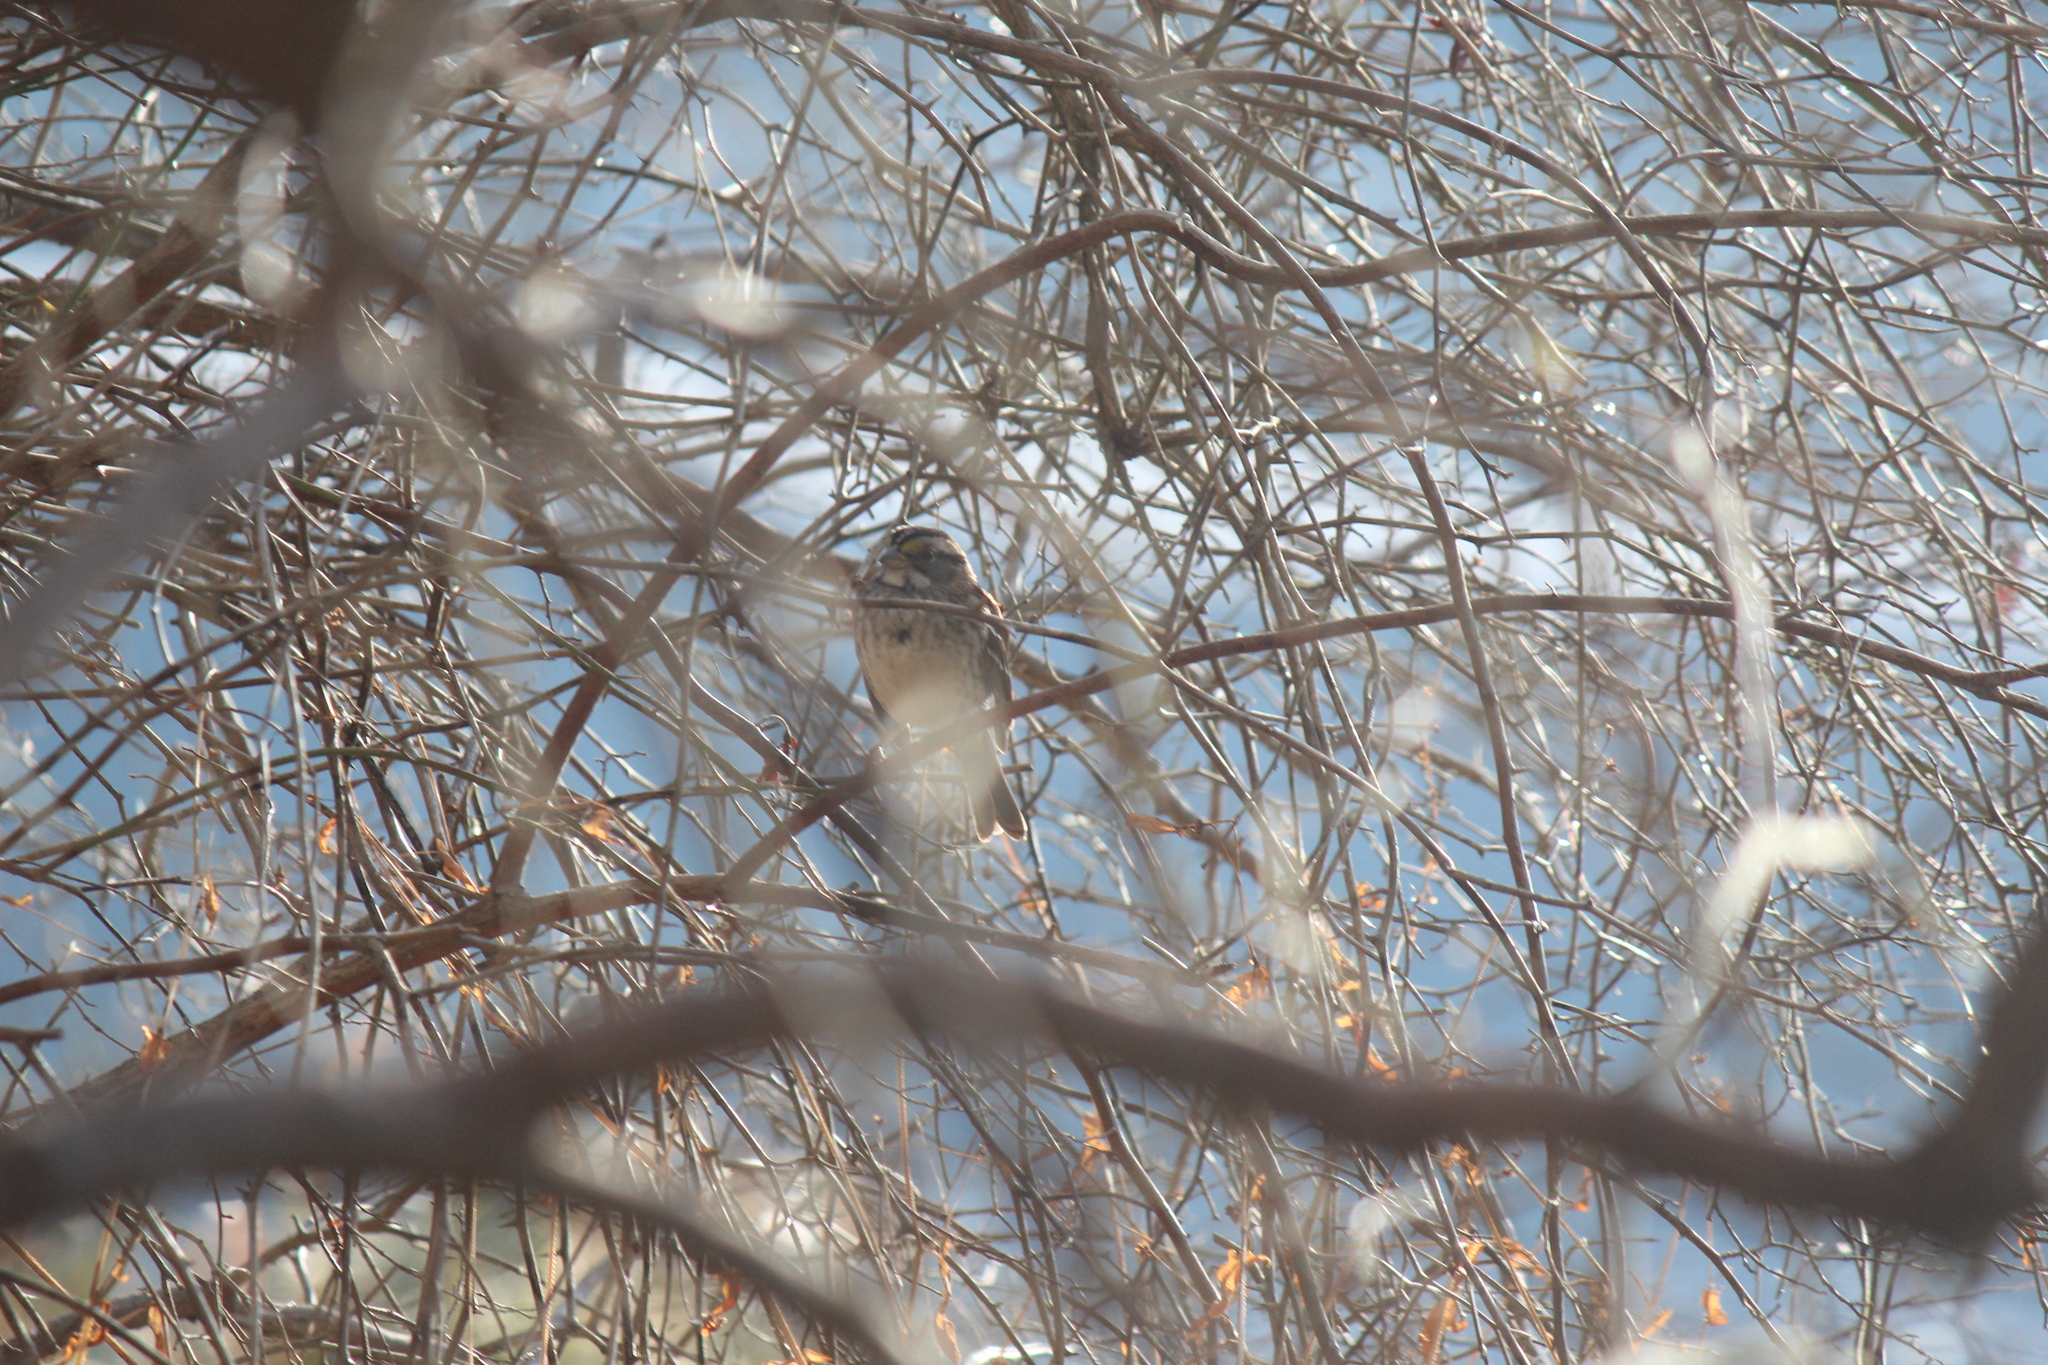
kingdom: Animalia
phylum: Chordata
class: Aves
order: Passeriformes
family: Passerellidae
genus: Zonotrichia
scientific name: Zonotrichia albicollis
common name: White-throated sparrow
